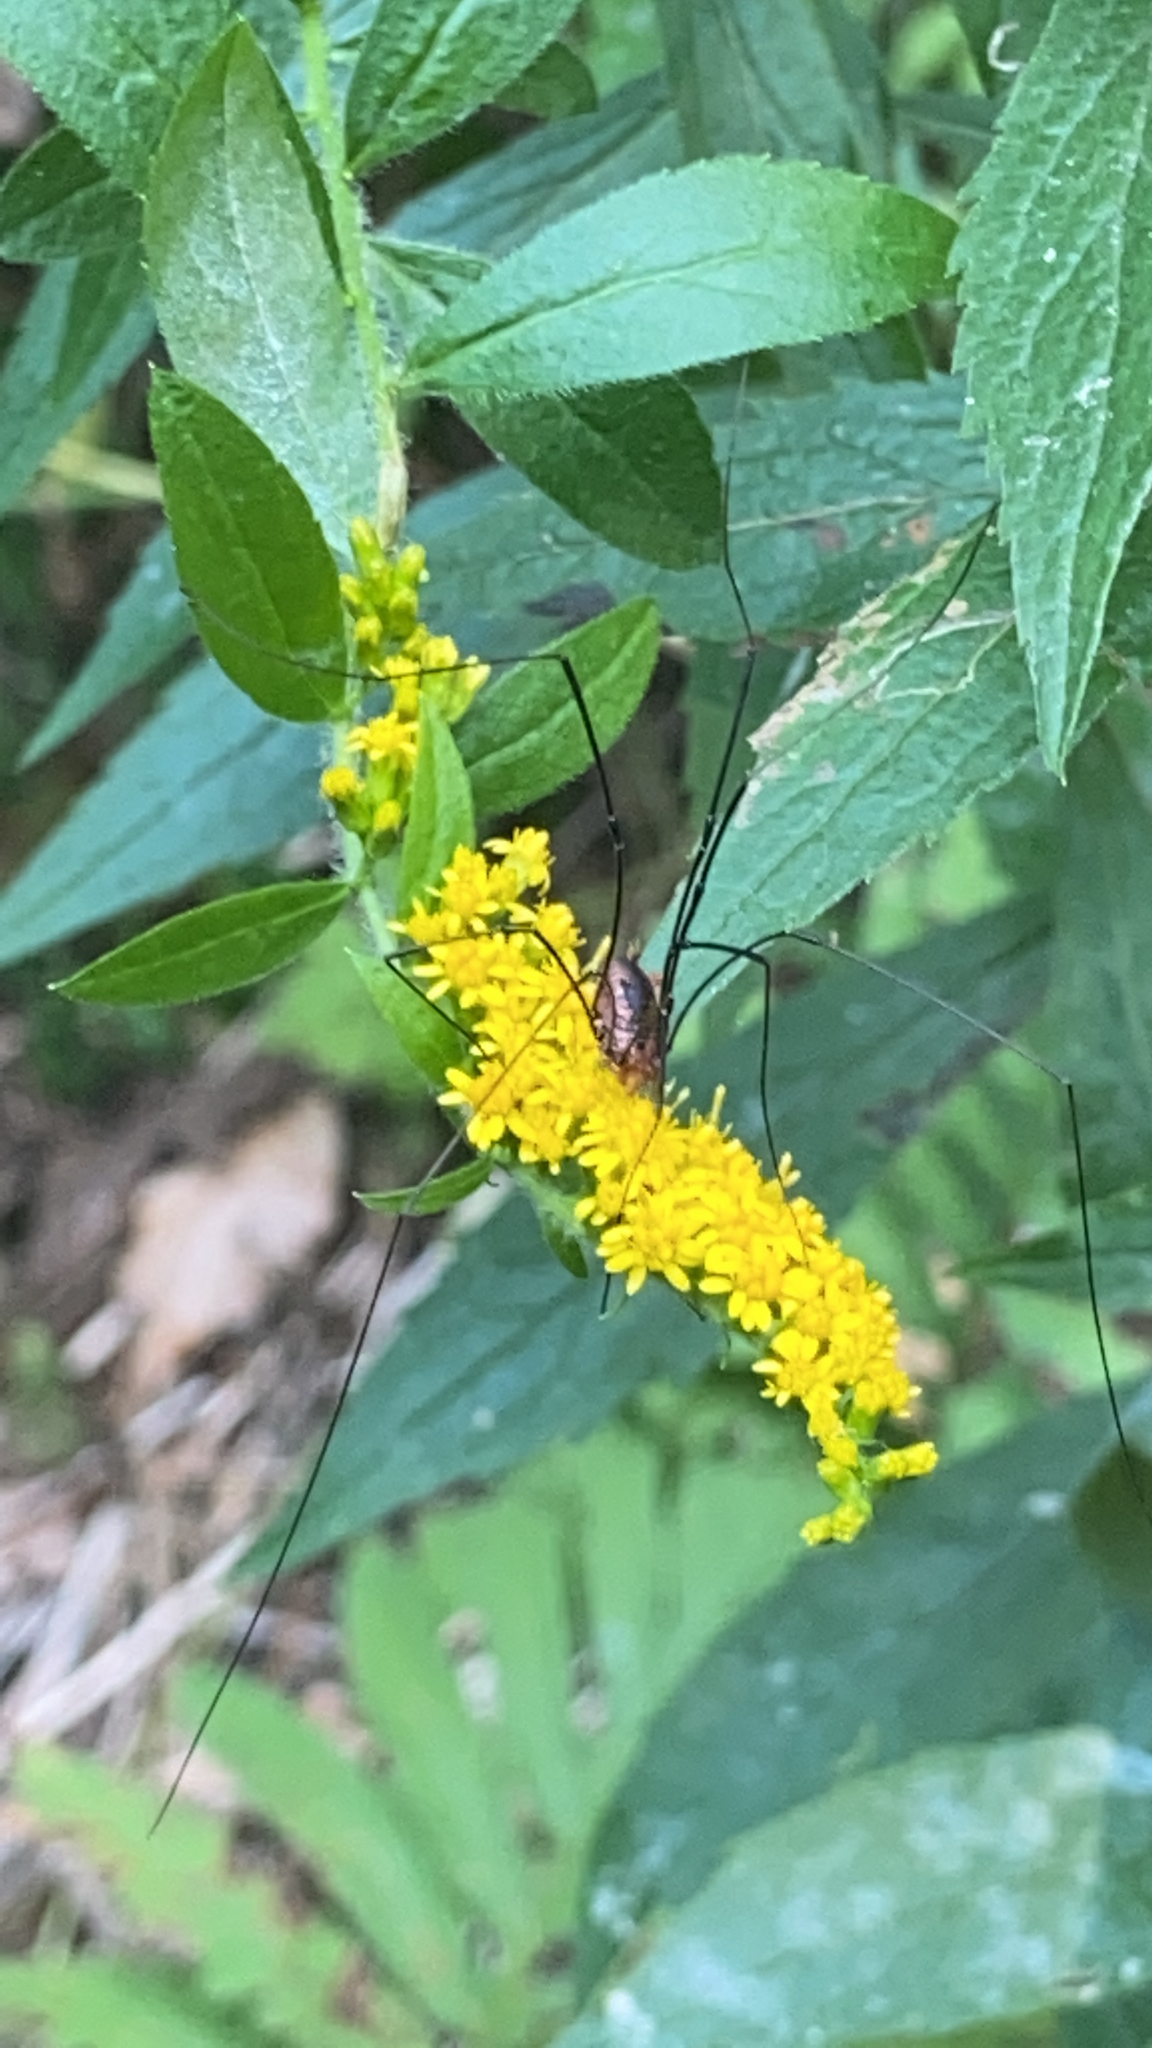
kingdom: Animalia
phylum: Arthropoda
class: Arachnida
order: Opiliones
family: Sclerosomatidae
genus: Leiobunum
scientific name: Leiobunum vittatum
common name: Eastern harvestman
